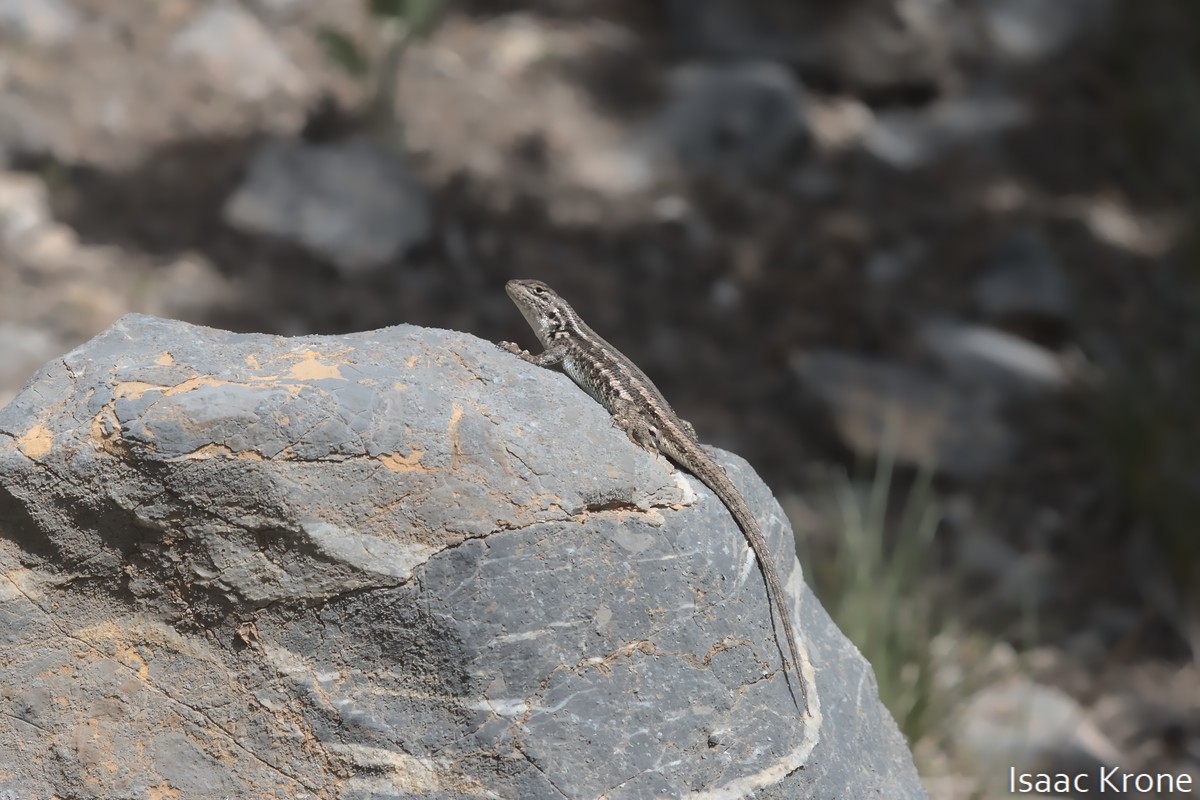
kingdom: Animalia
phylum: Chordata
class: Squamata
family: Phrynosomatidae
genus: Sceloporus
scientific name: Sceloporus graciosus
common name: Sagebrush lizard
